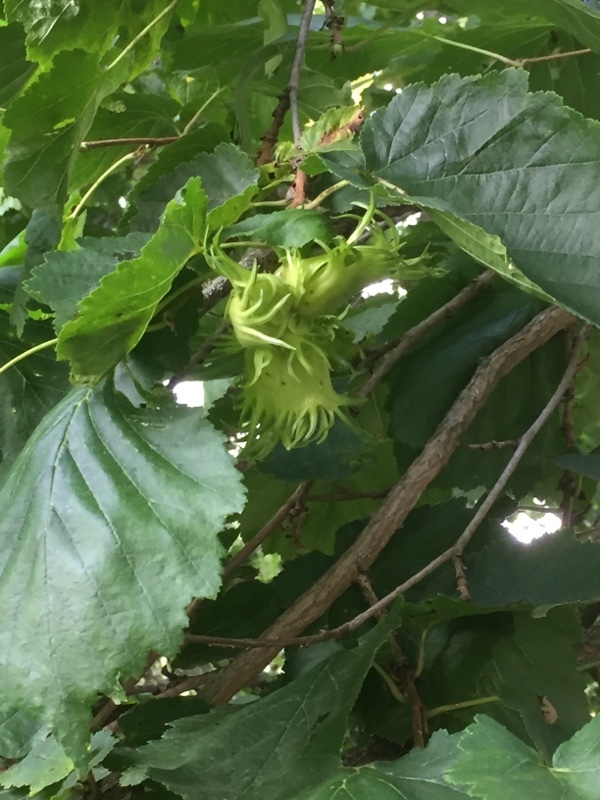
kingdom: Plantae
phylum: Tracheophyta
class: Magnoliopsida
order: Fagales
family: Betulaceae
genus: Corylus
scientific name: Corylus colurna
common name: Turkish hazel
